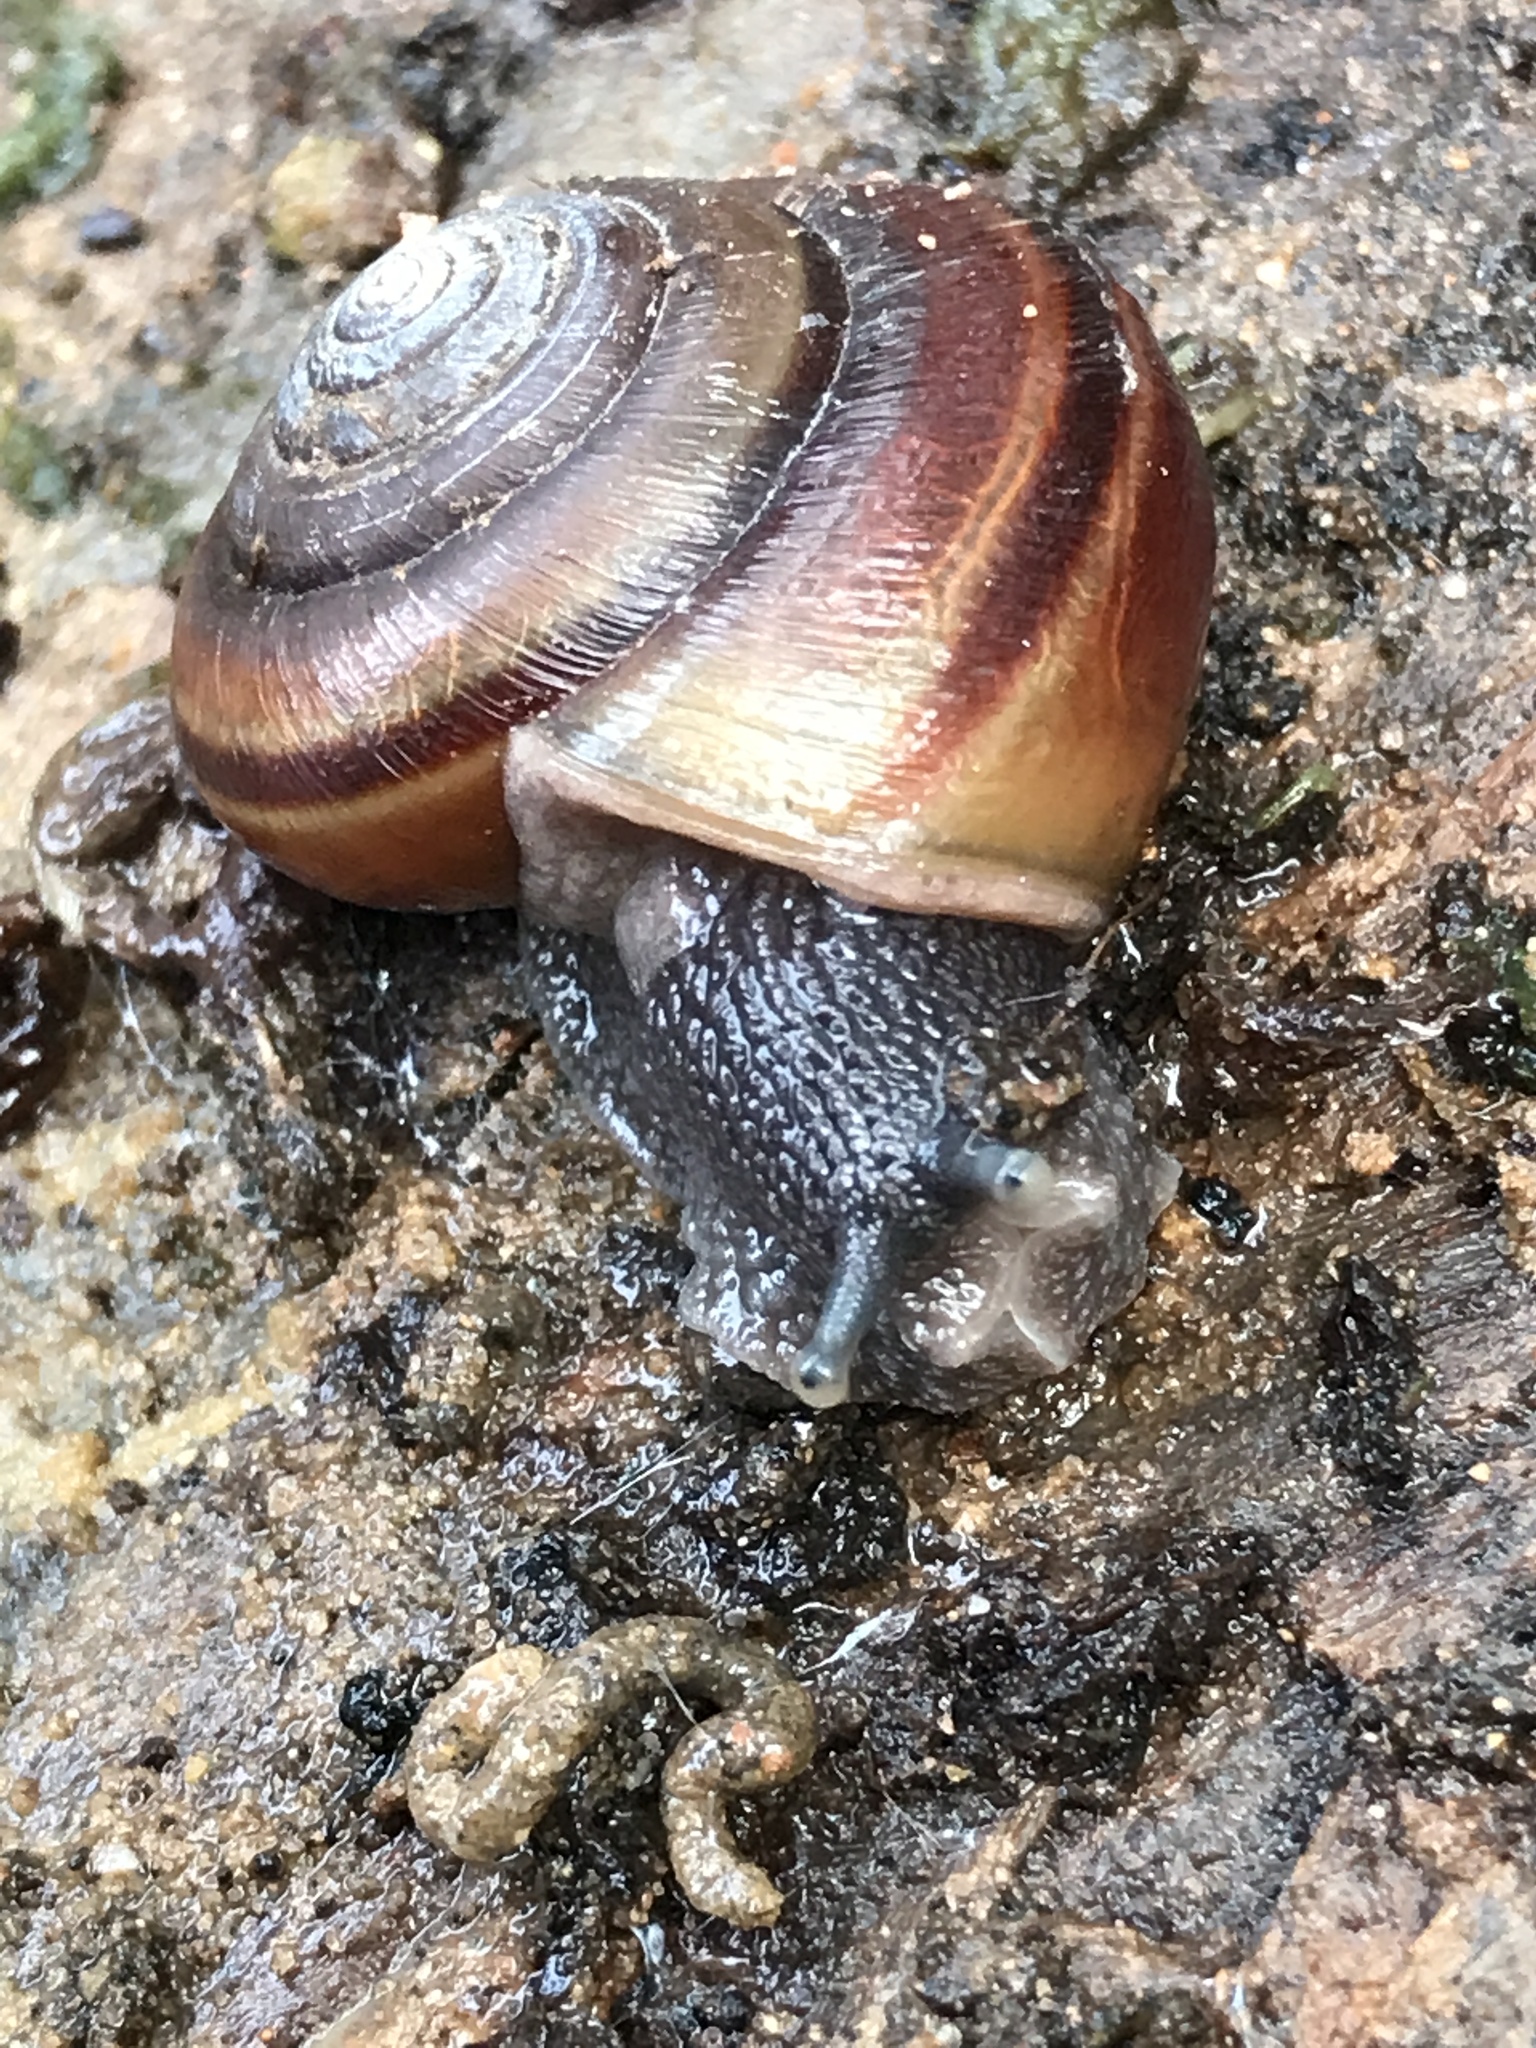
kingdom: Animalia
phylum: Mollusca
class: Gastropoda
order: Stylommatophora
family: Xanthonychidae
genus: Helminthoglypta
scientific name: Helminthoglypta arrosa
